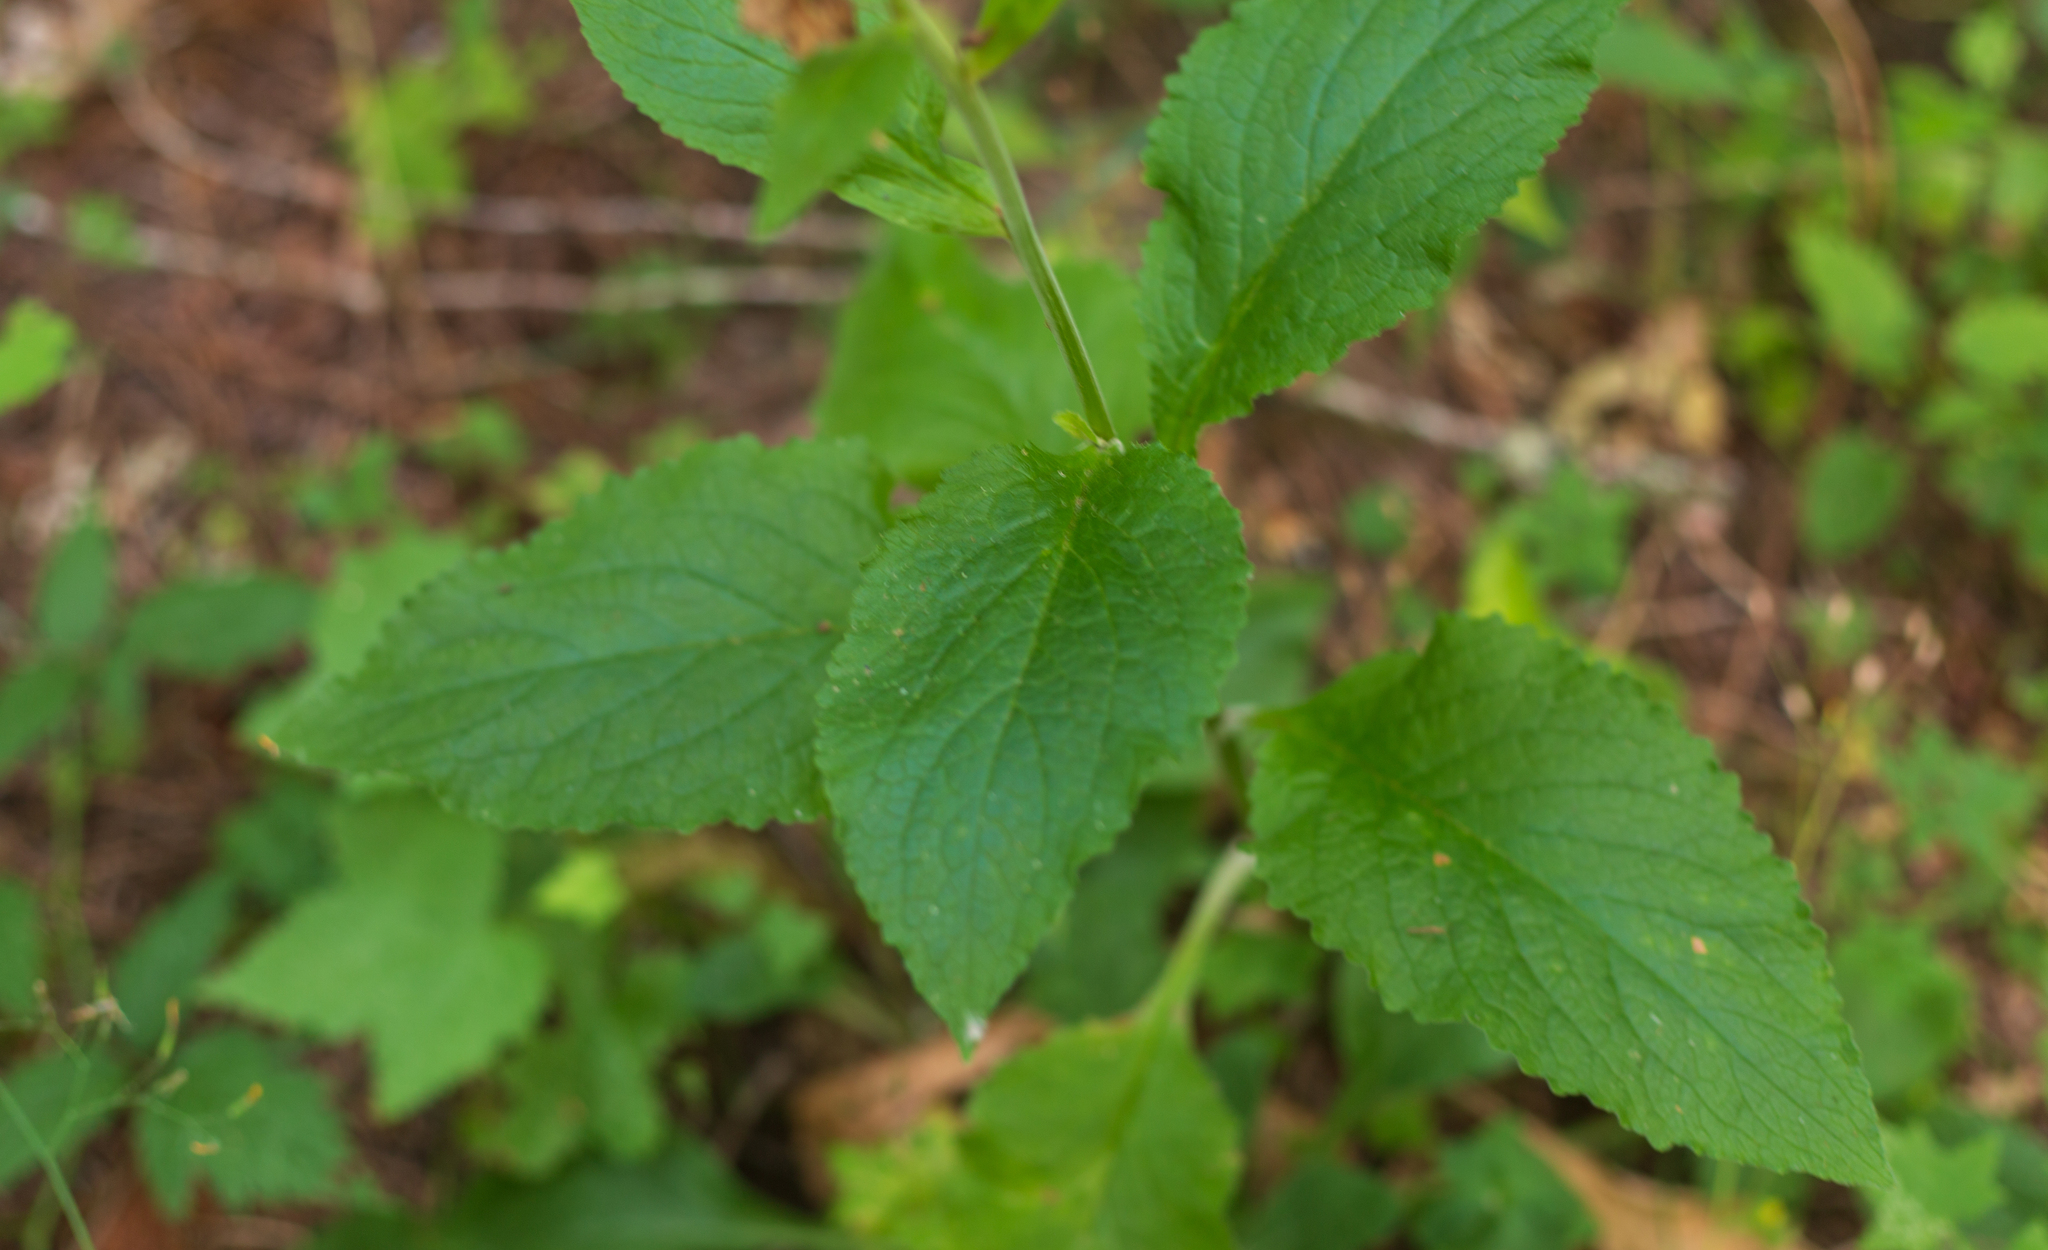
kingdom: Plantae
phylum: Tracheophyta
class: Magnoliopsida
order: Lamiales
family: Plantaginaceae
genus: Digitalis
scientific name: Digitalis purpurea
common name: Foxglove
